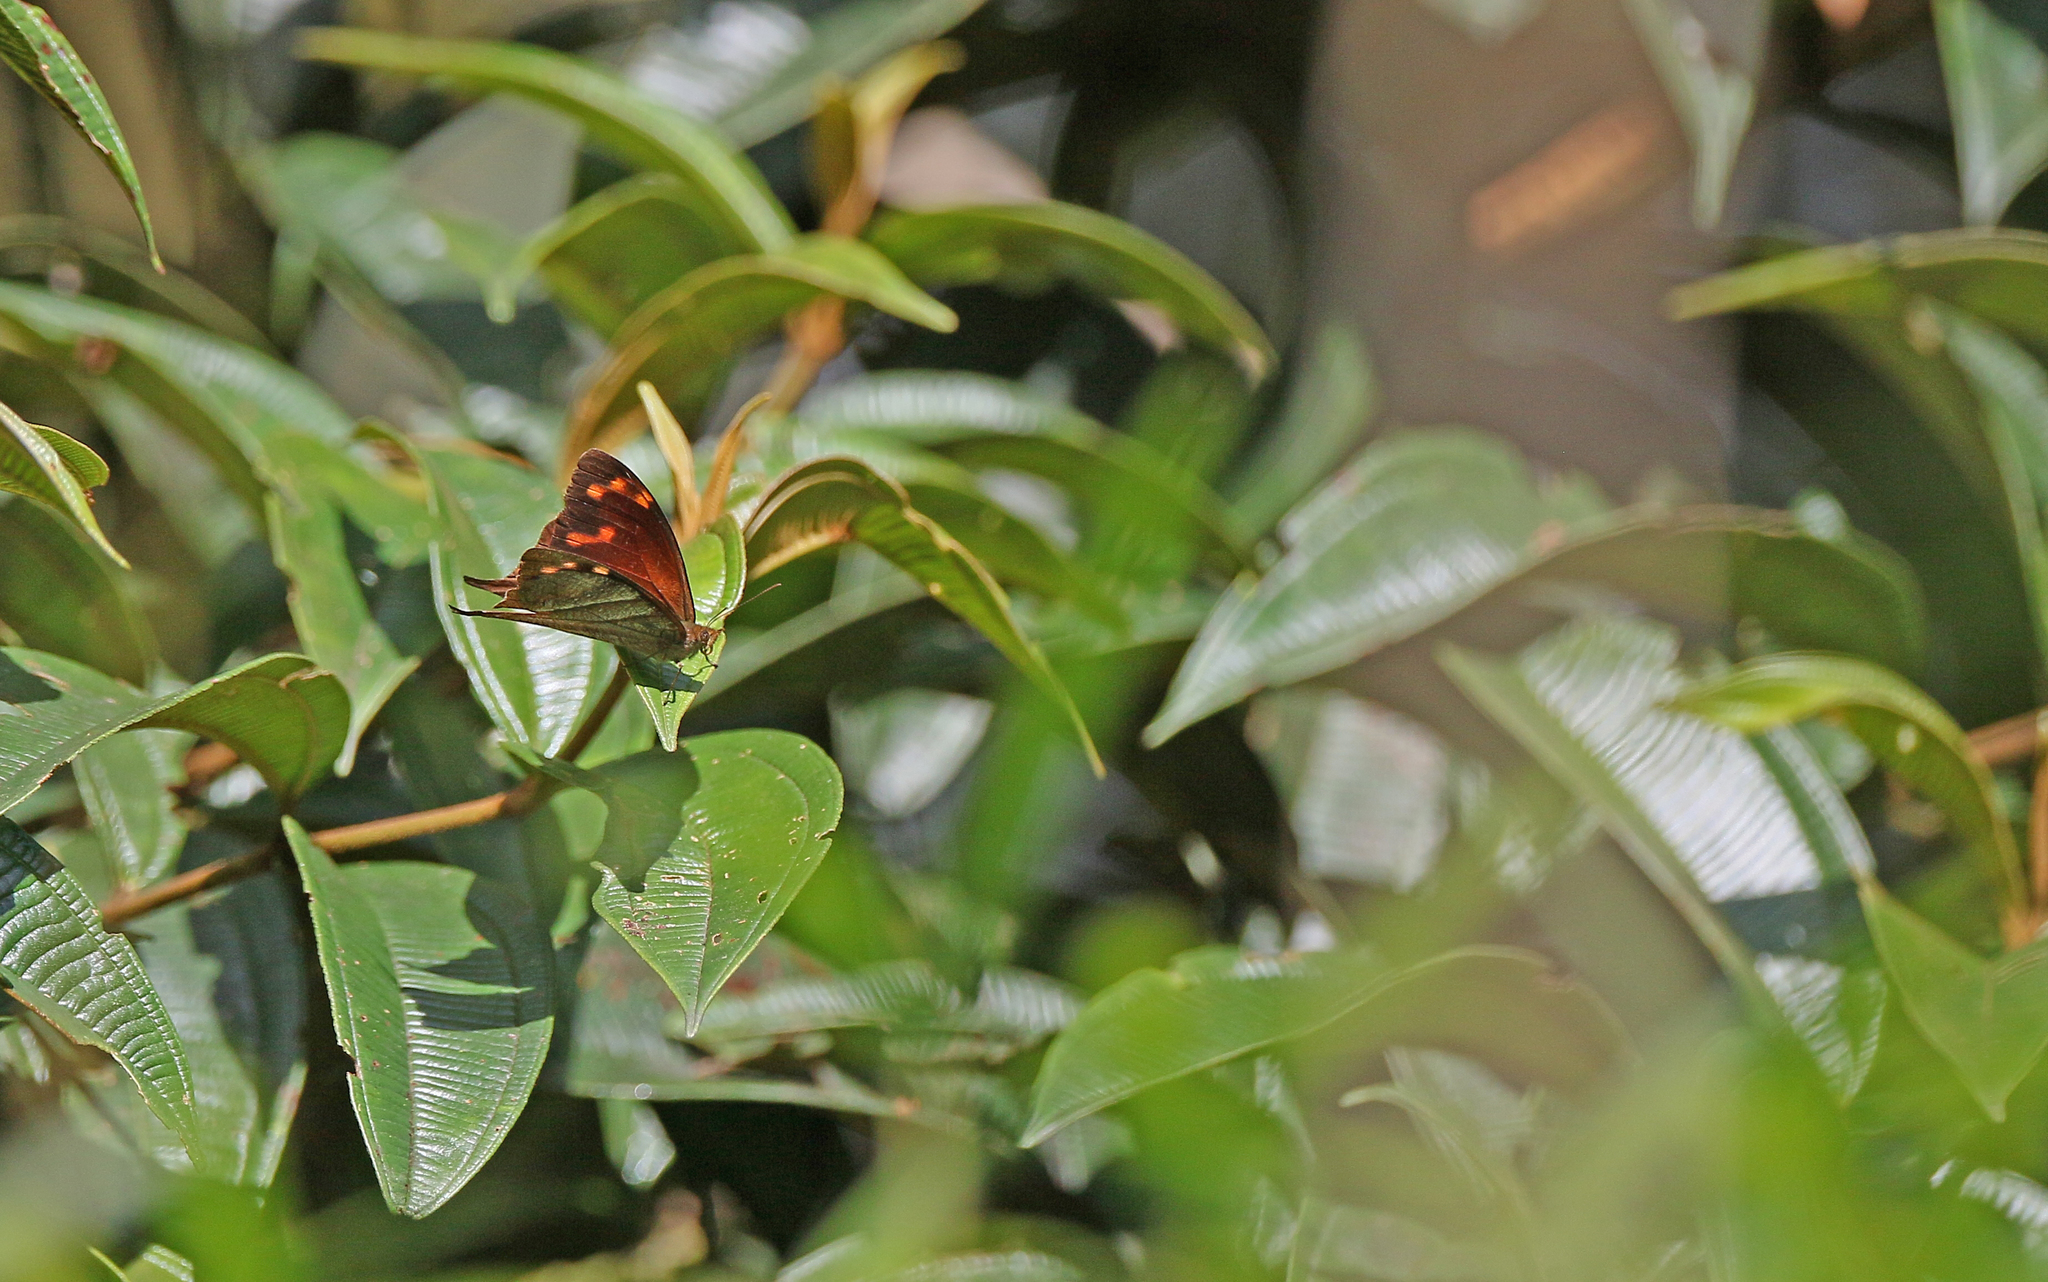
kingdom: Animalia
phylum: Arthropoda
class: Insecta
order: Lepidoptera
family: Nymphalidae
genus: Corades
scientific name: Corades enyo
